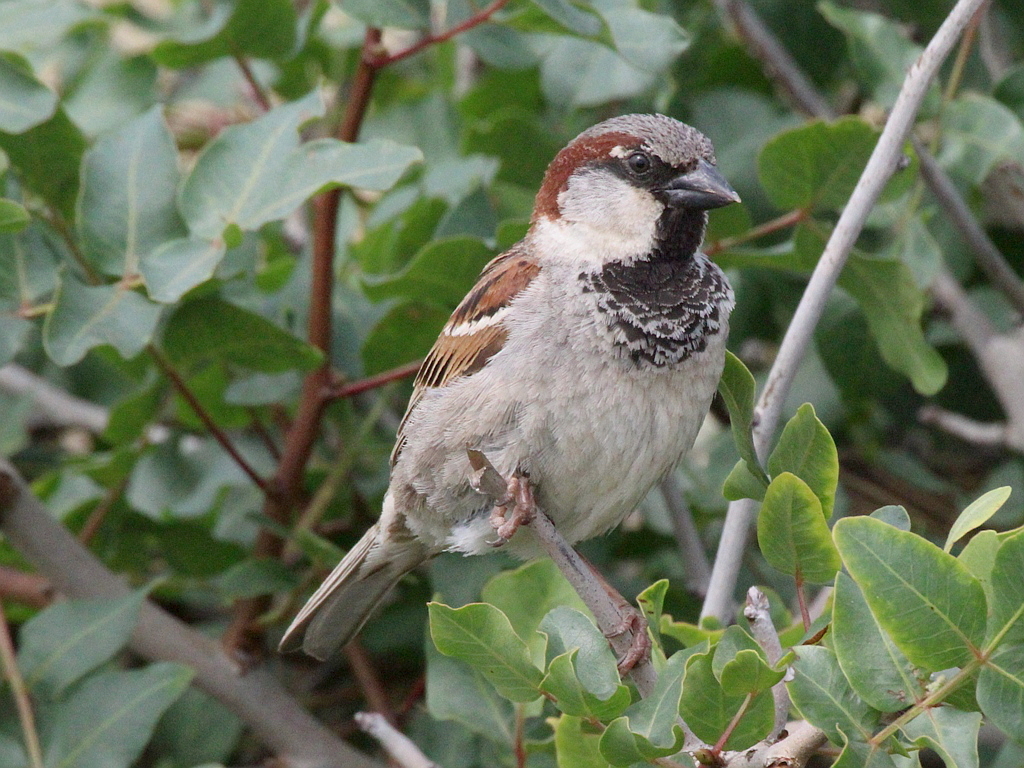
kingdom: Animalia
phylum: Chordata
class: Aves
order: Passeriformes
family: Passeridae
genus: Passer
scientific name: Passer domesticus
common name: House sparrow
